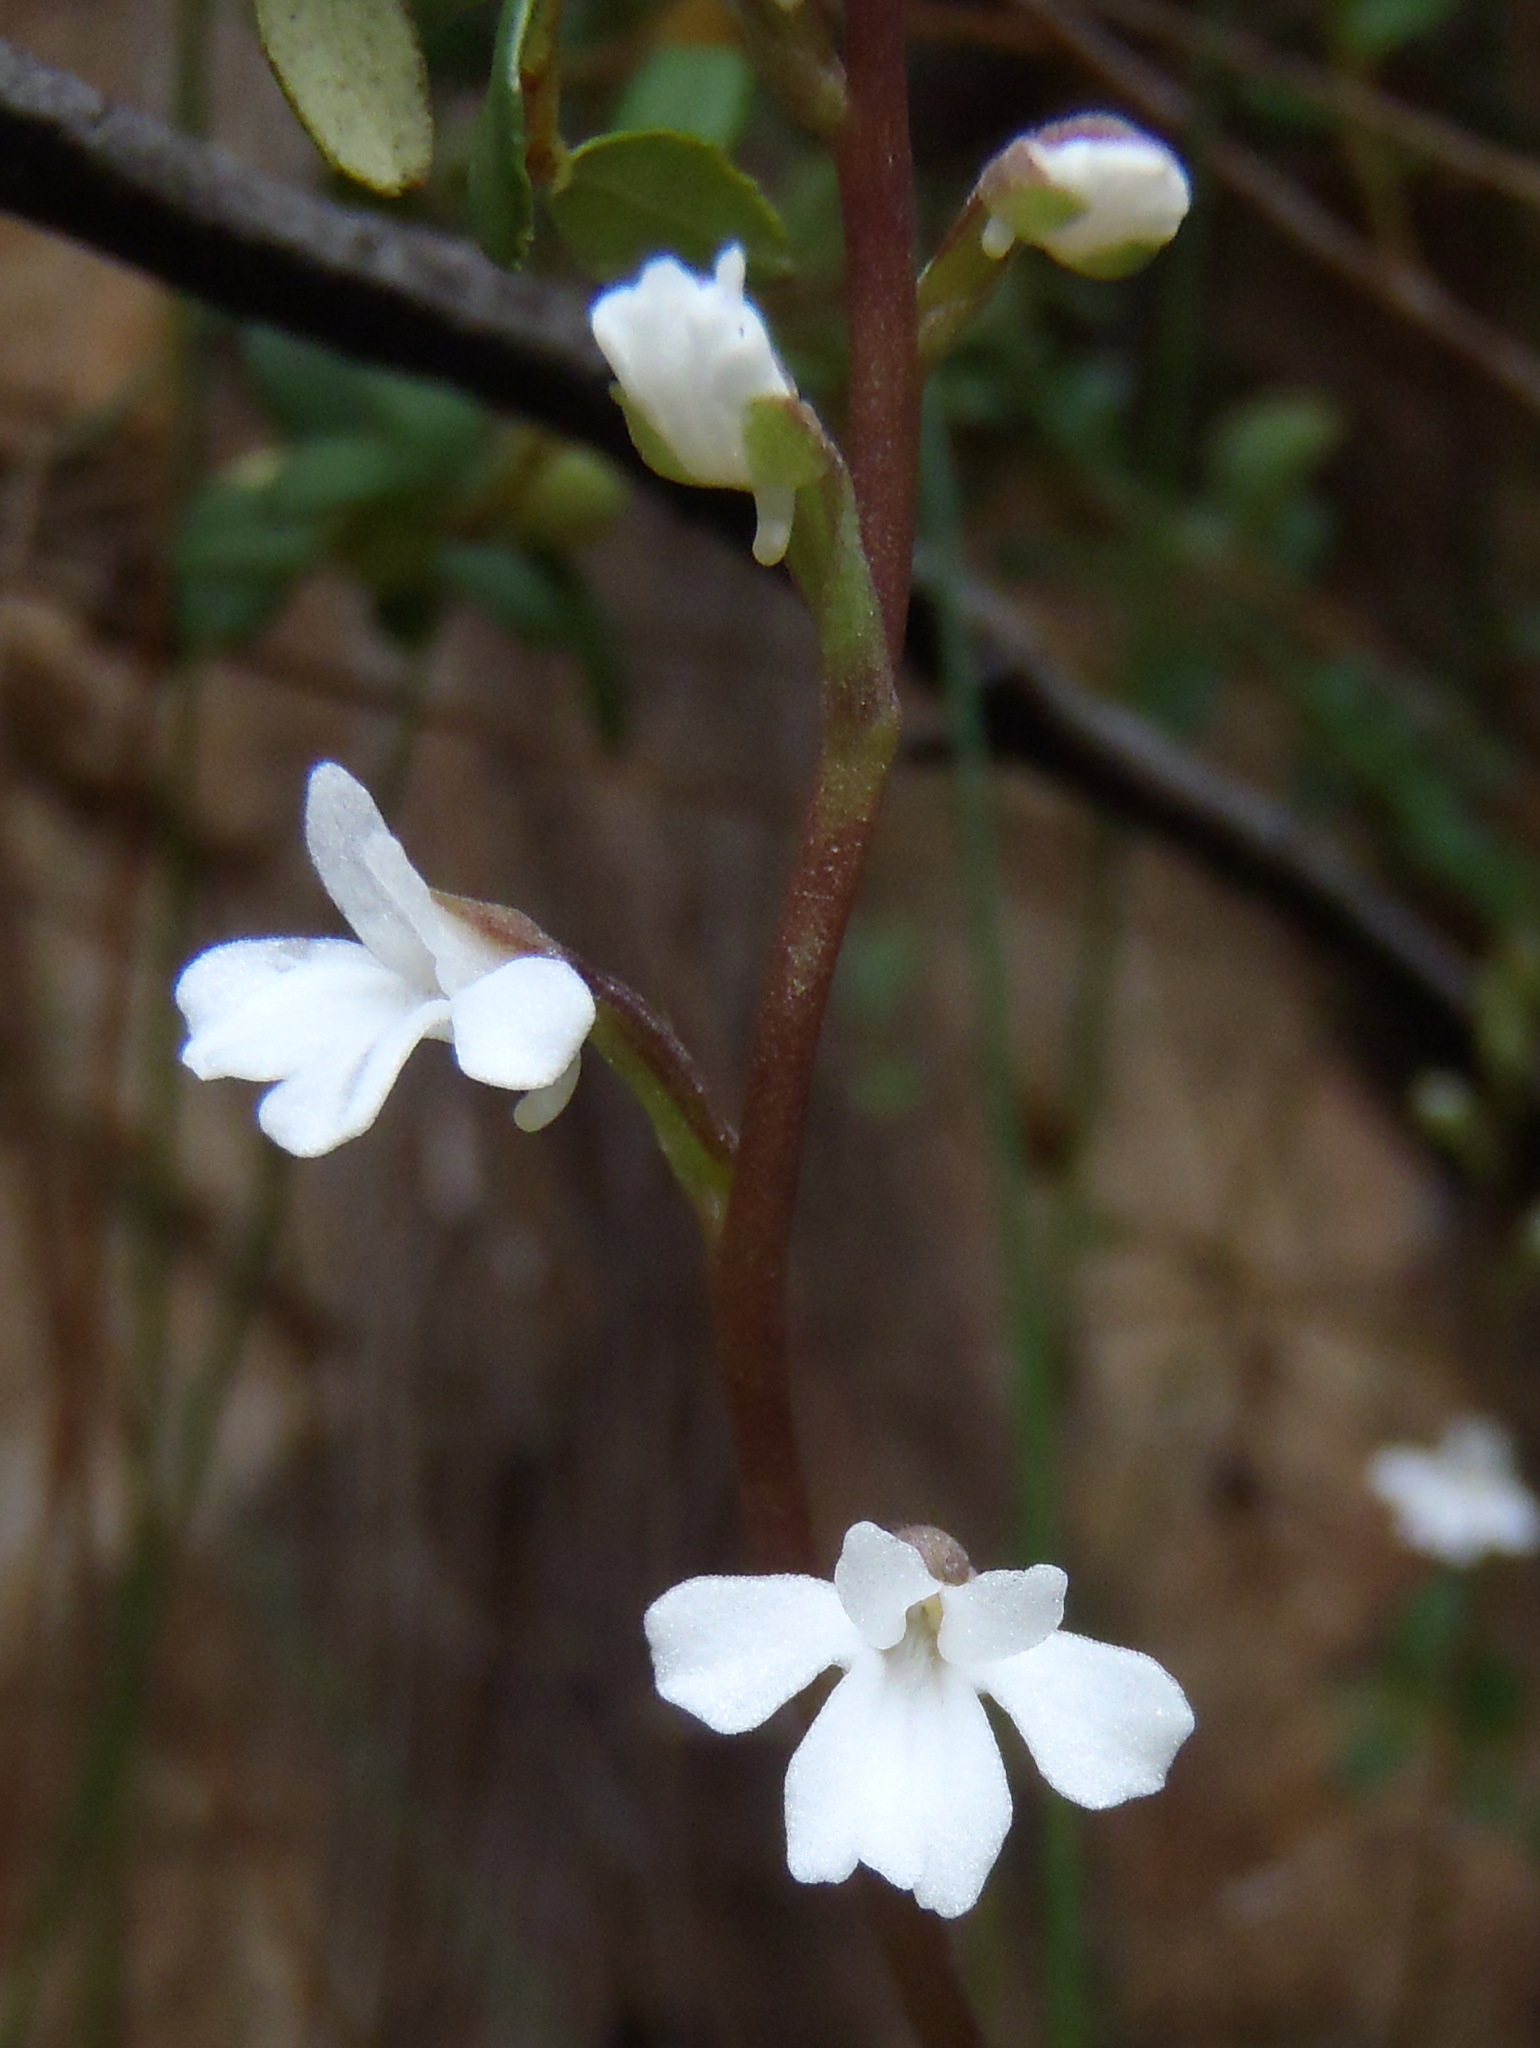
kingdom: Plantae
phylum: Tracheophyta
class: Liliopsida
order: Asparagales
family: Orchidaceae
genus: Holothrix
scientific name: Holothrix parviflora
